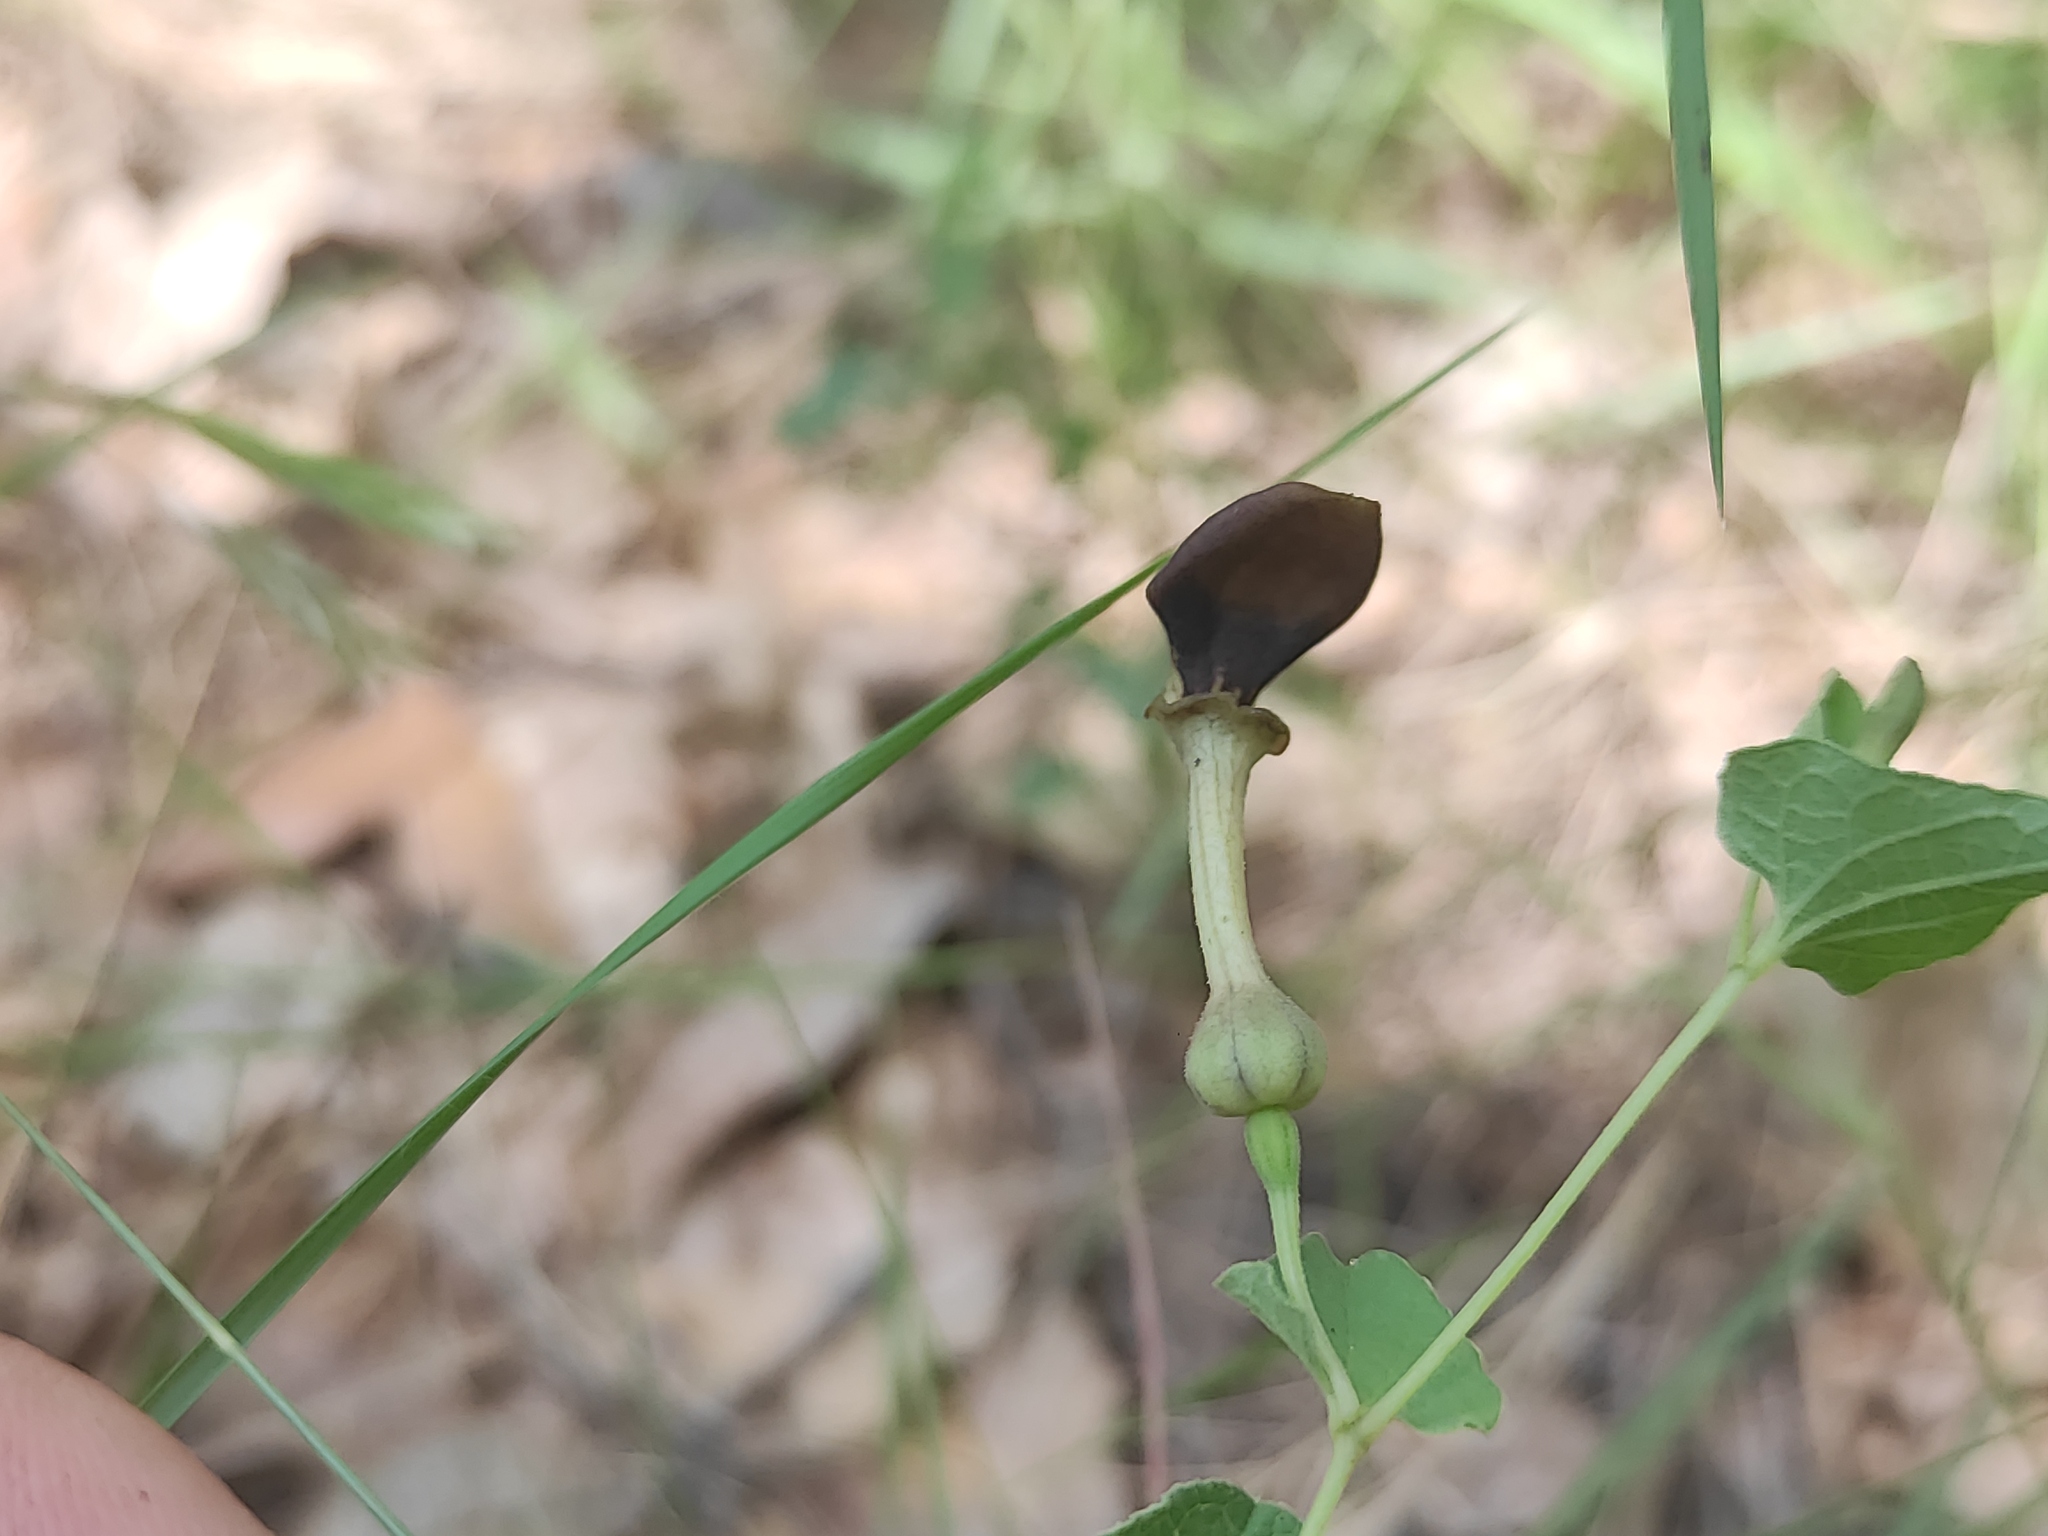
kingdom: Plantae
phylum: Tracheophyta
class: Magnoliopsida
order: Piperales
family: Aristolochiaceae
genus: Aristolochia
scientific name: Aristolochia pistolochia
